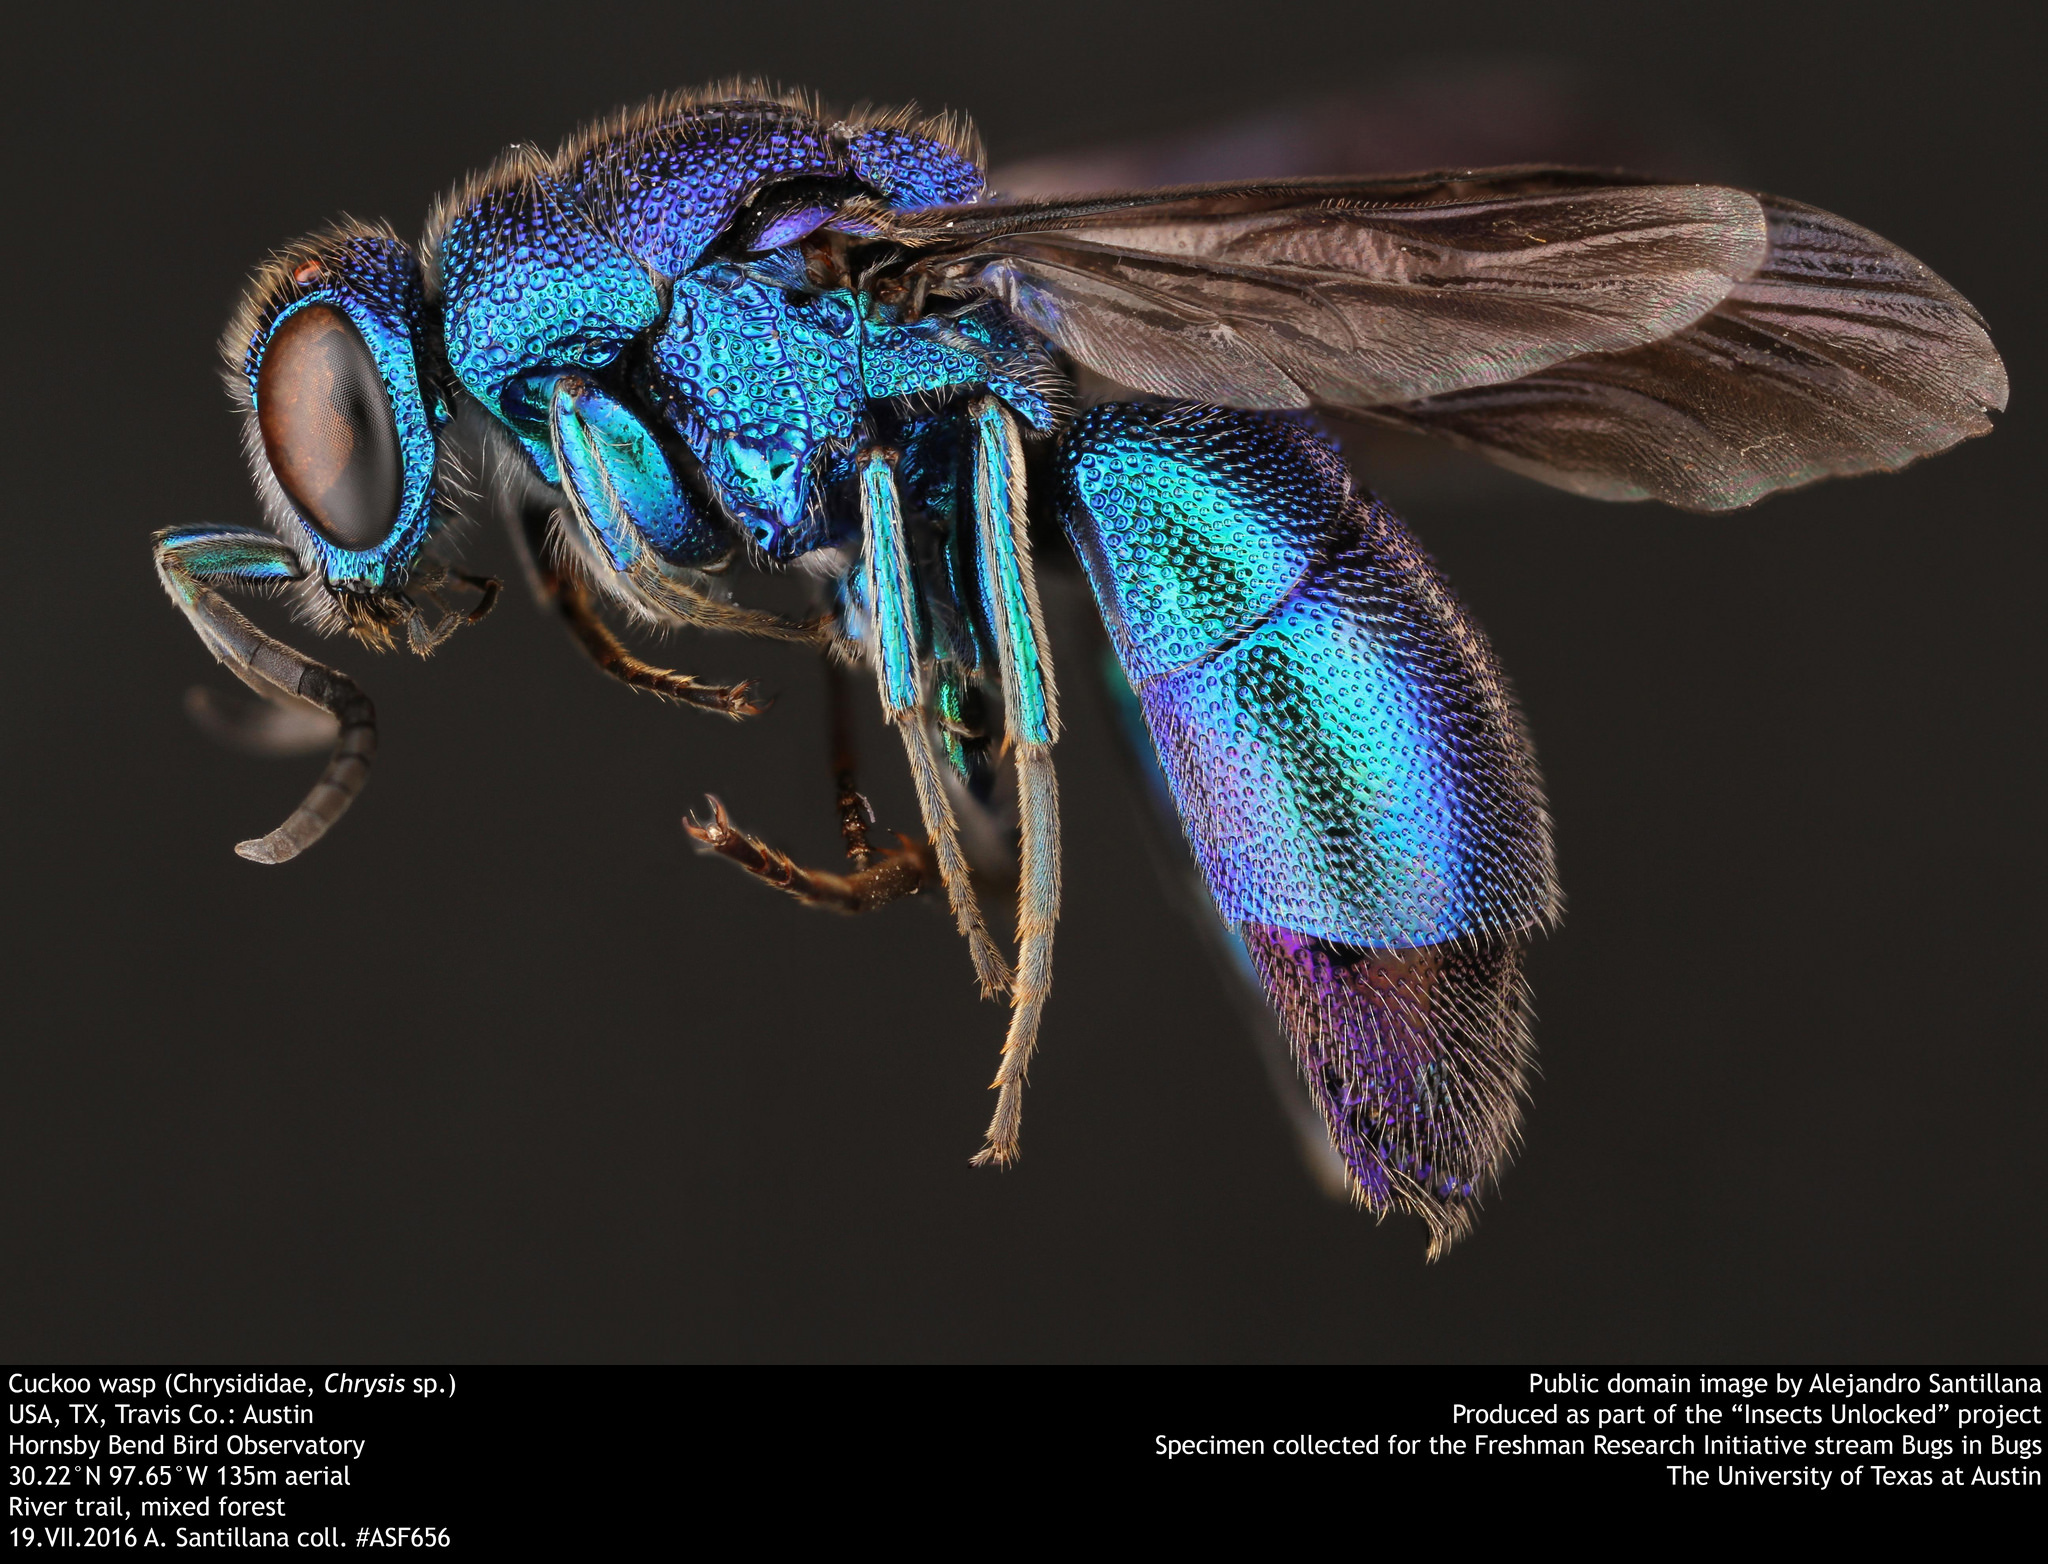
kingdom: Animalia
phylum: Arthropoda
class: Insecta
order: Hymenoptera
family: Chrysididae
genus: Chrysis
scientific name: Chrysis angolensis
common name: Cuckoo wasp
